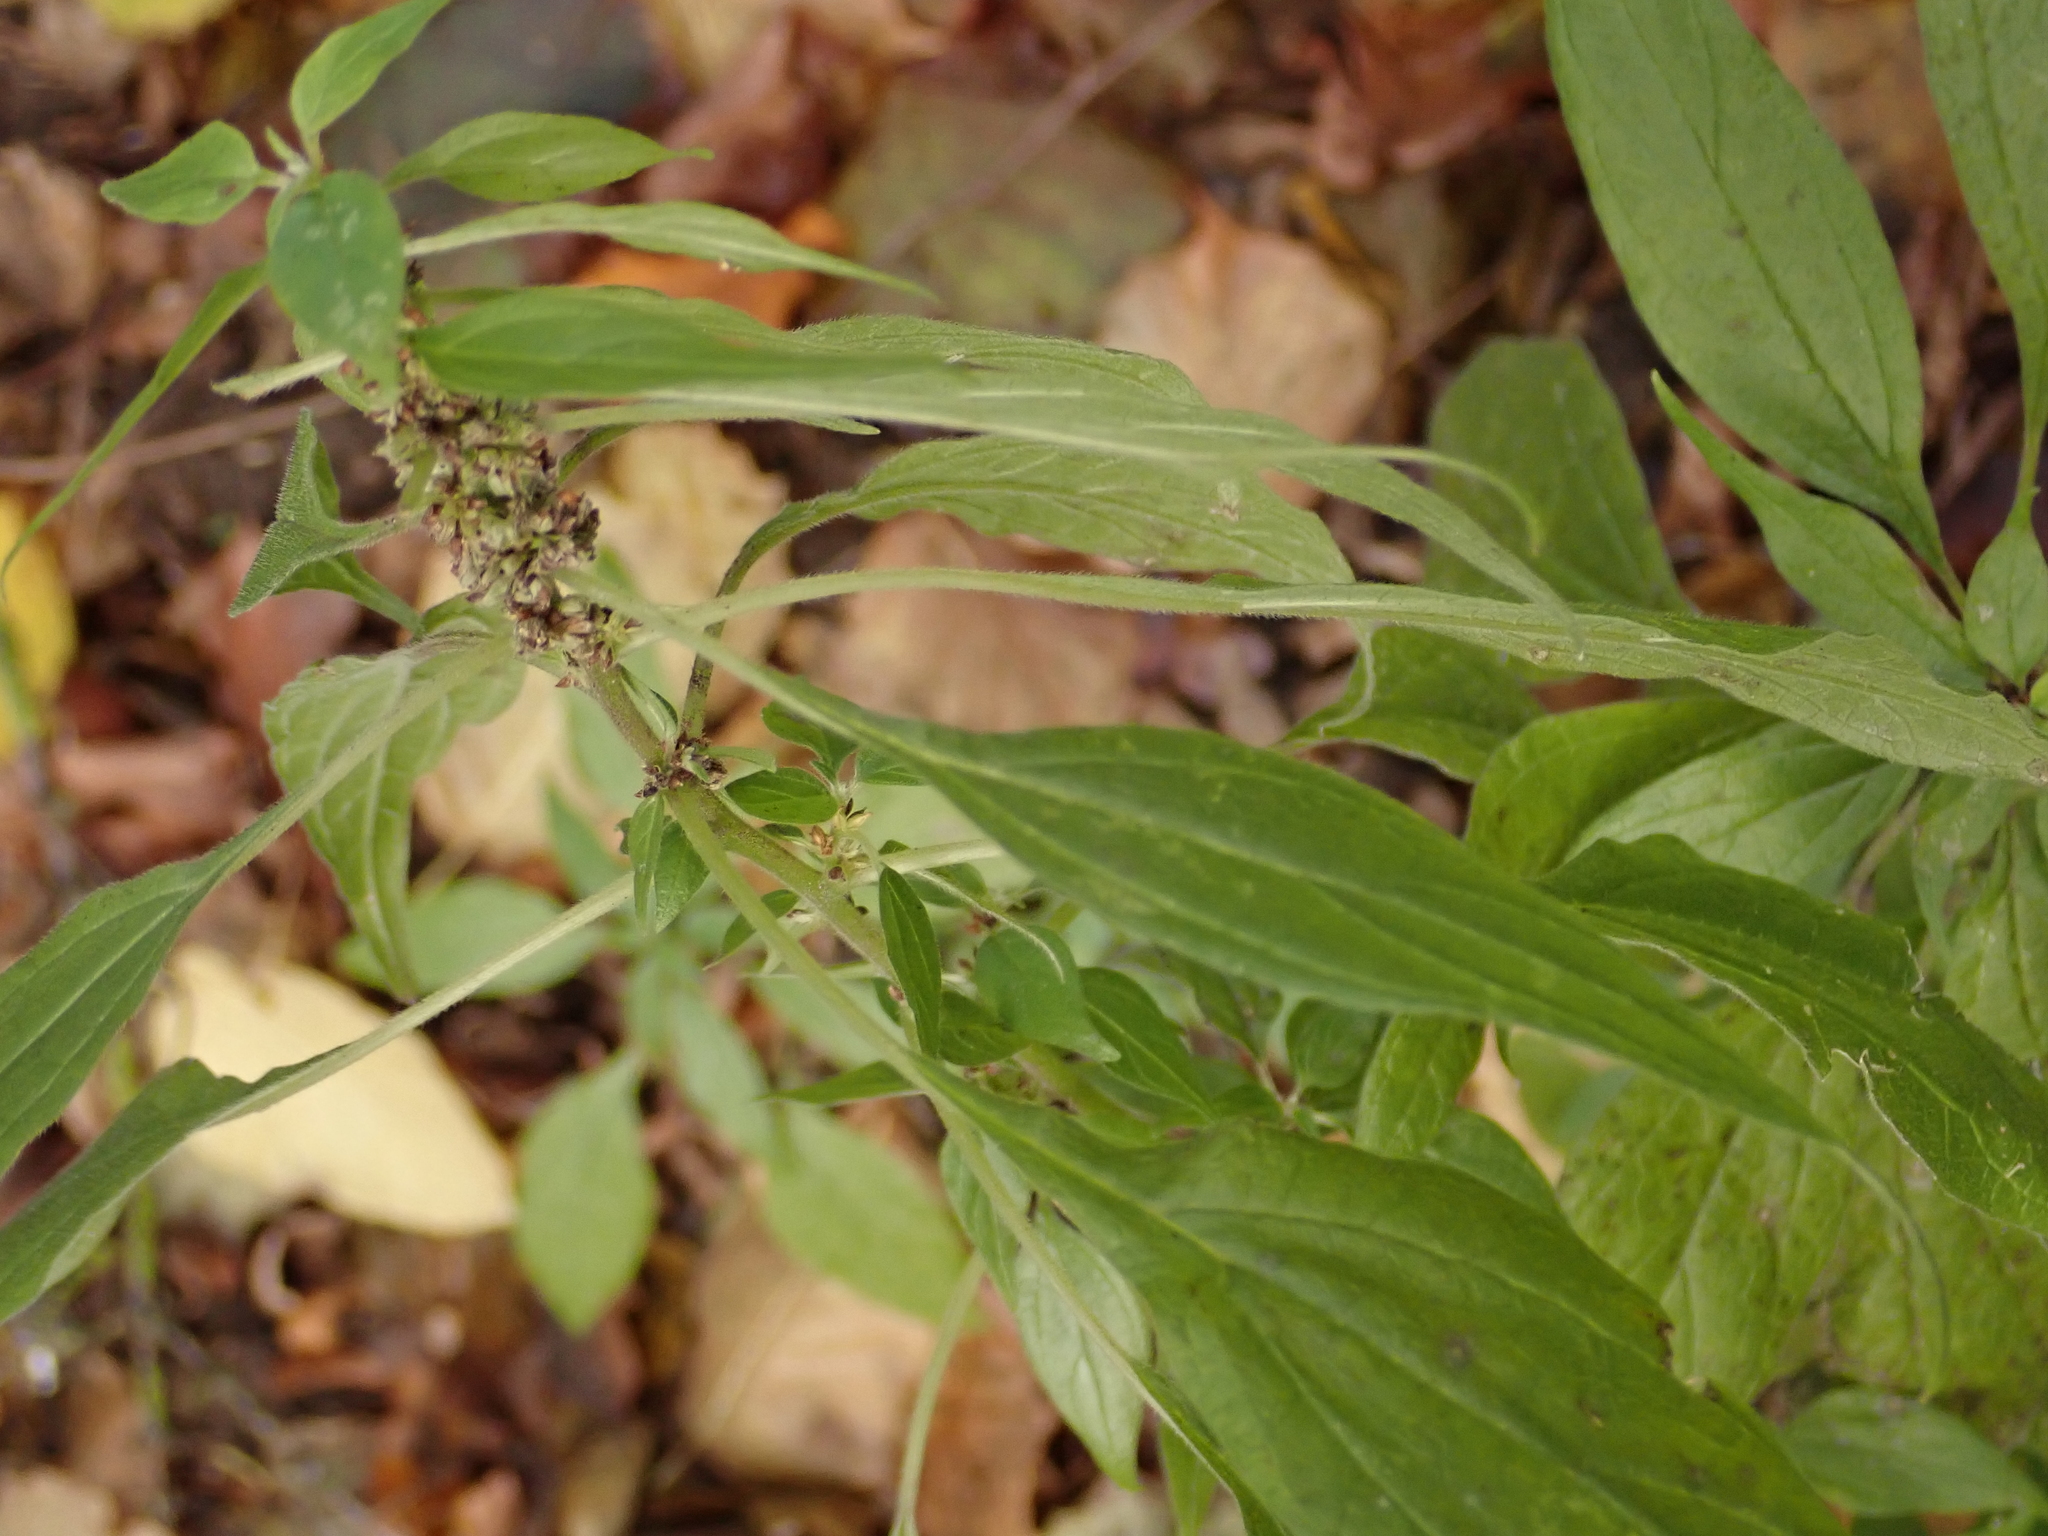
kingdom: Plantae
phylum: Tracheophyta
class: Magnoliopsida
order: Rosales
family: Urticaceae
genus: Parietaria
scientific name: Parietaria officinalis
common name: Eastern pellitory-of-the-wall
